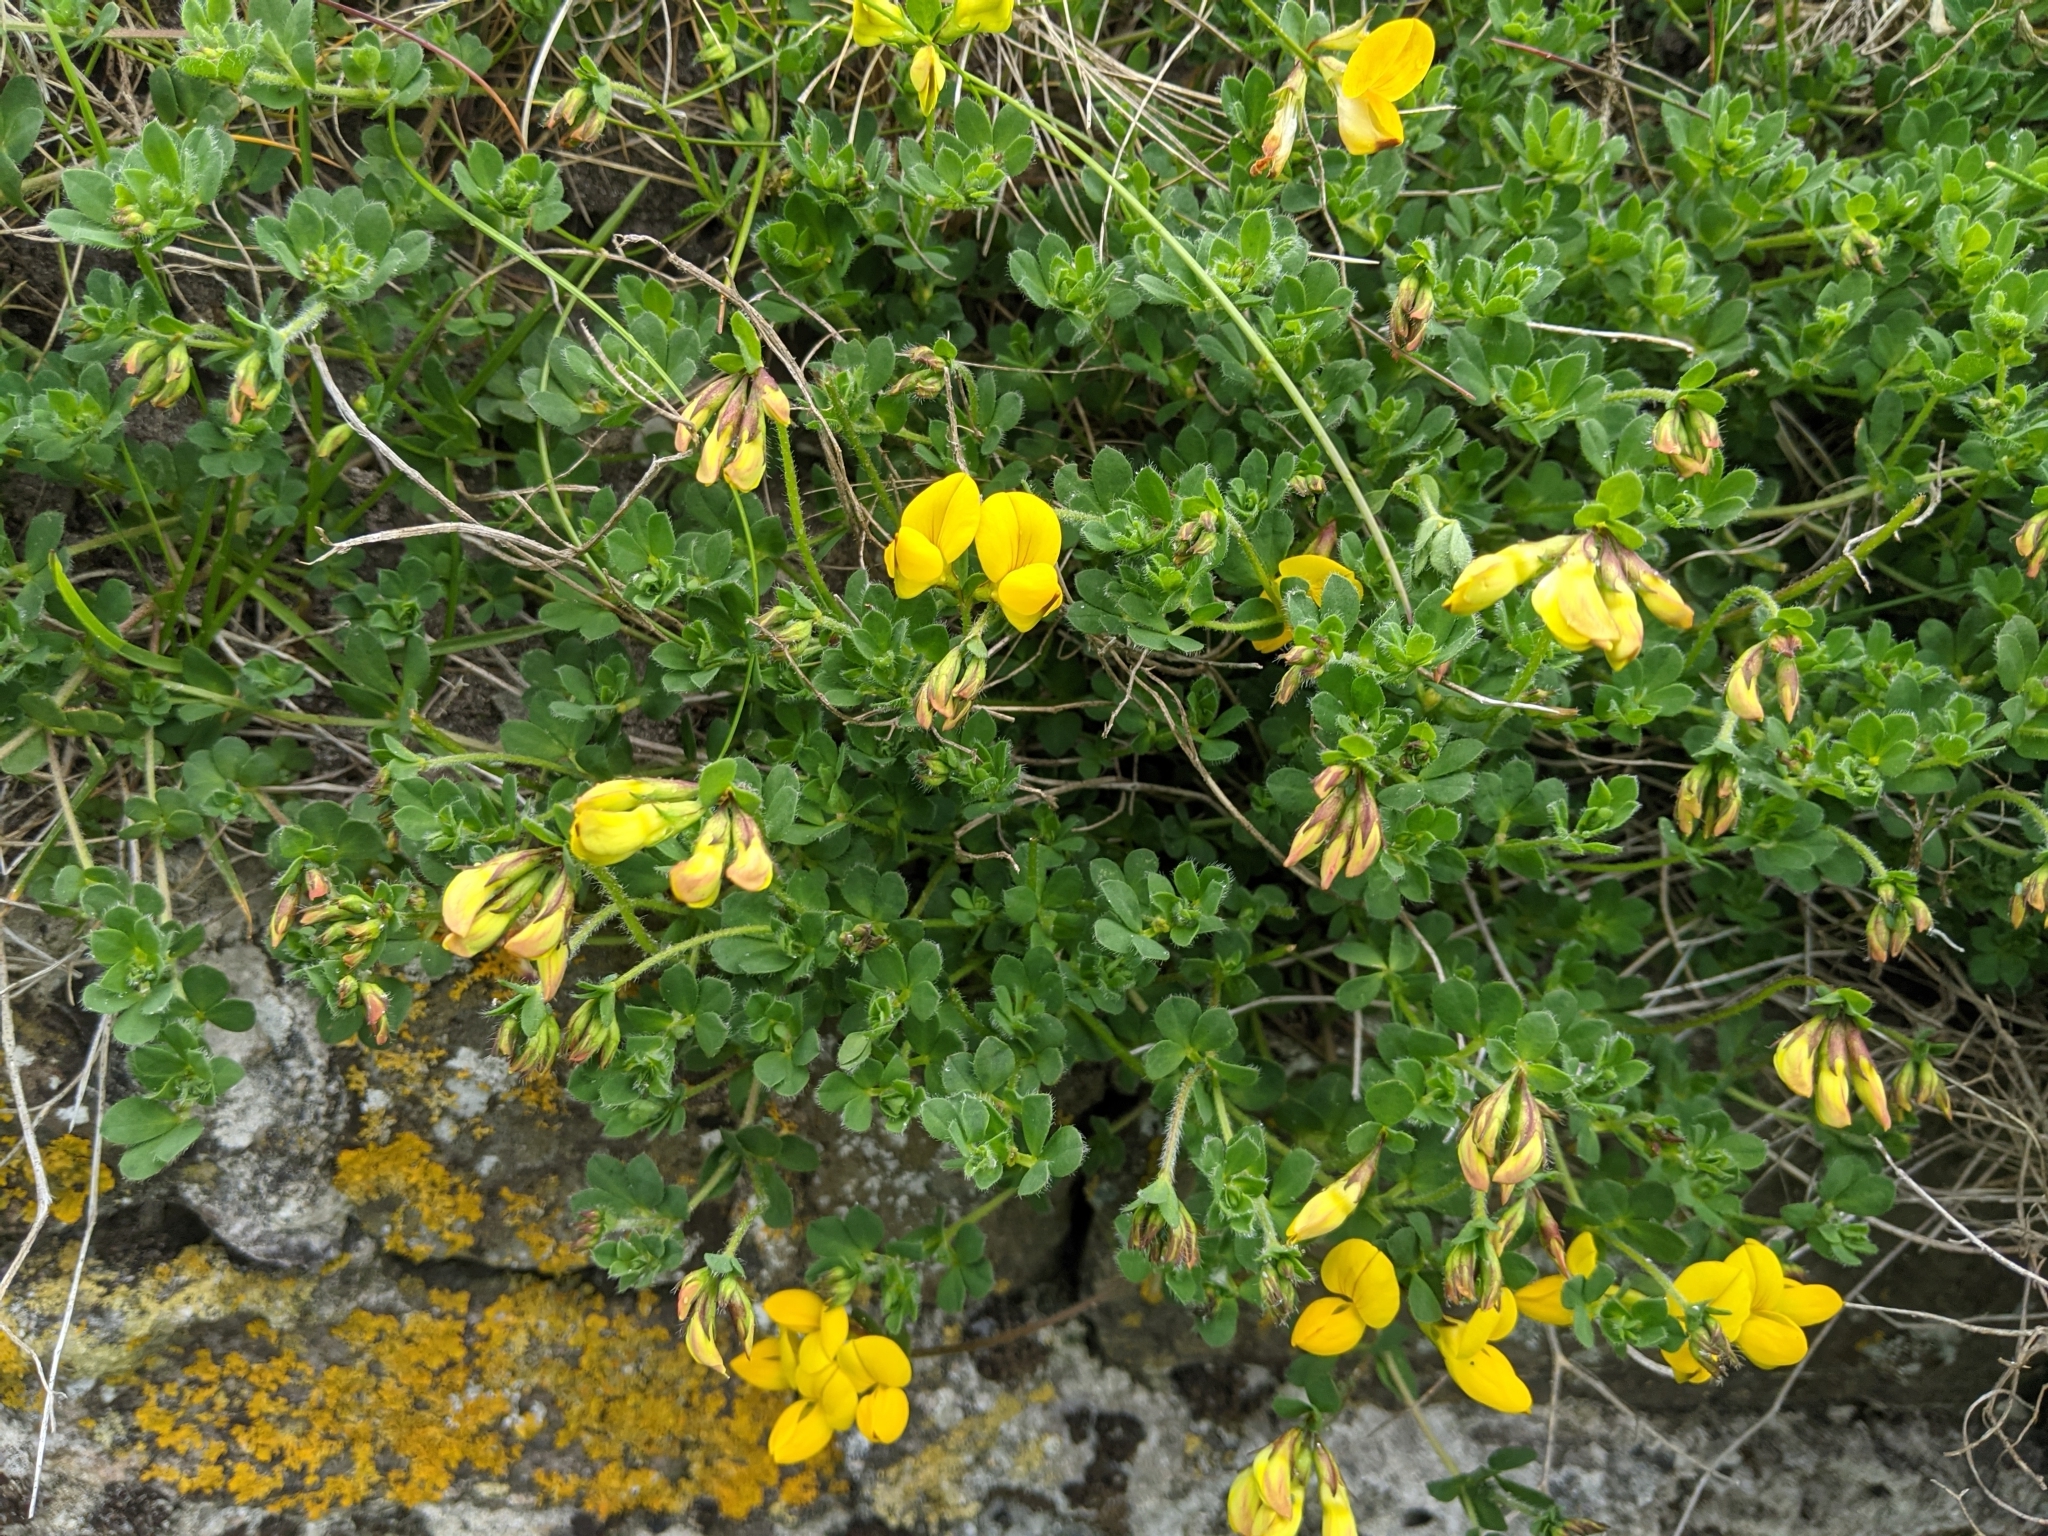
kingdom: Plantae
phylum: Tracheophyta
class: Magnoliopsida
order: Fabales
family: Fabaceae
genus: Lotus
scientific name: Lotus corniculatus
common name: Common bird's-foot-trefoil
